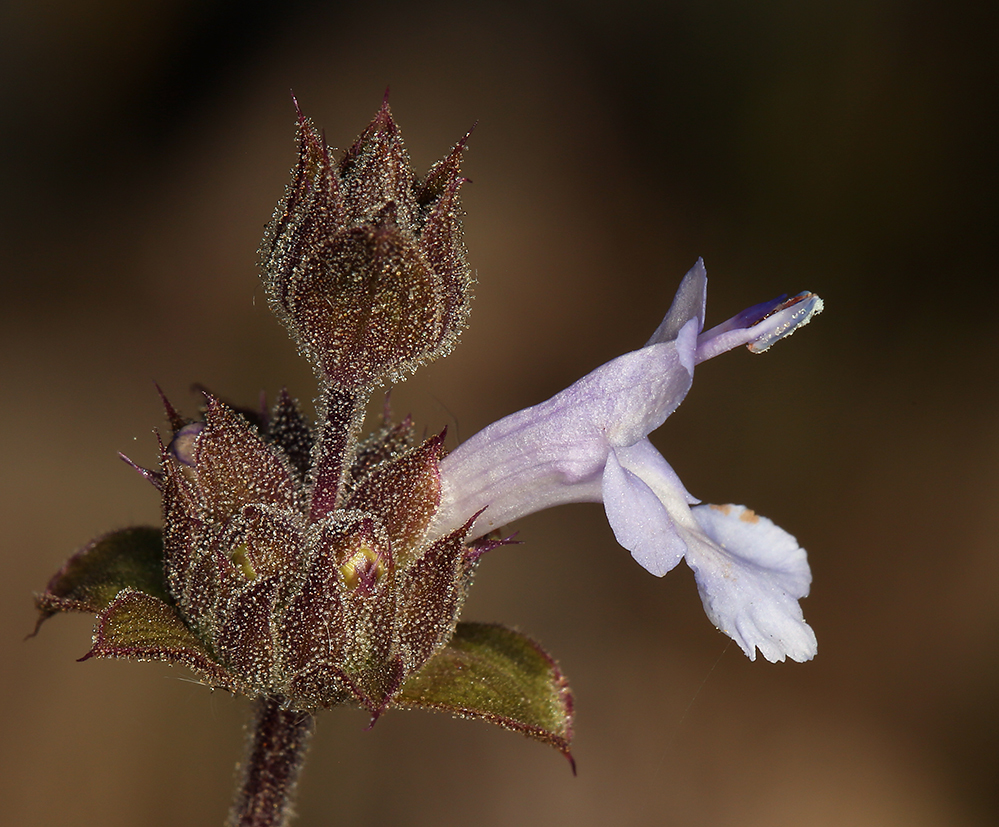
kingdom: Plantae
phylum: Tracheophyta
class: Magnoliopsida
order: Lamiales
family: Lamiaceae
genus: Salvia
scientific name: Salvia mellifera
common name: Black sage
